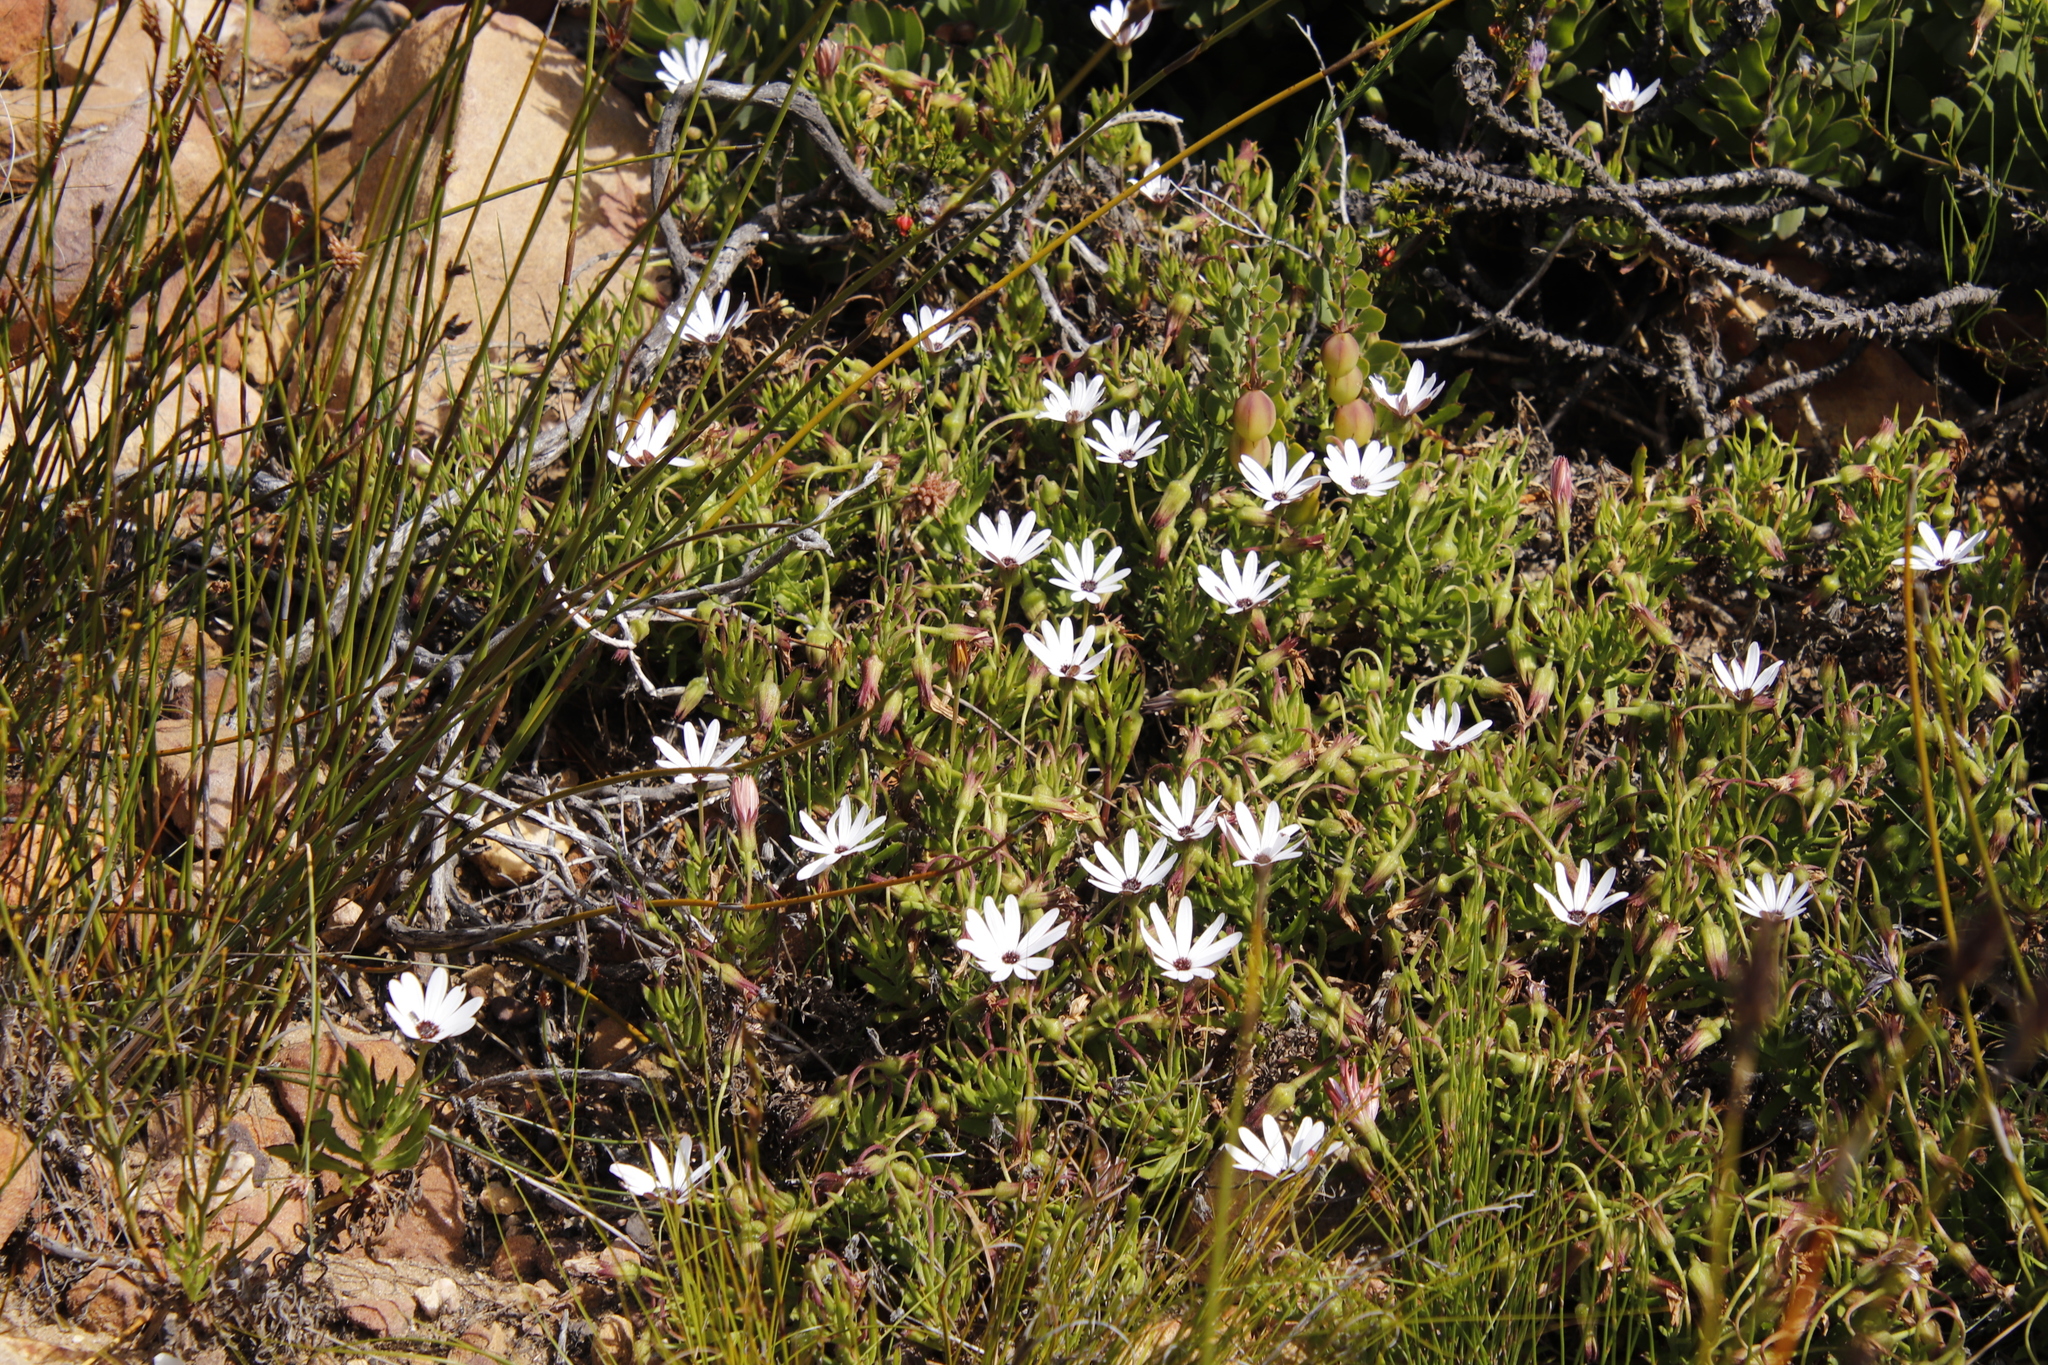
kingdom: Plantae
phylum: Tracheophyta
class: Magnoliopsida
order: Asterales
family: Asteraceae
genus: Dimorphotheca
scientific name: Dimorphotheca walliana
